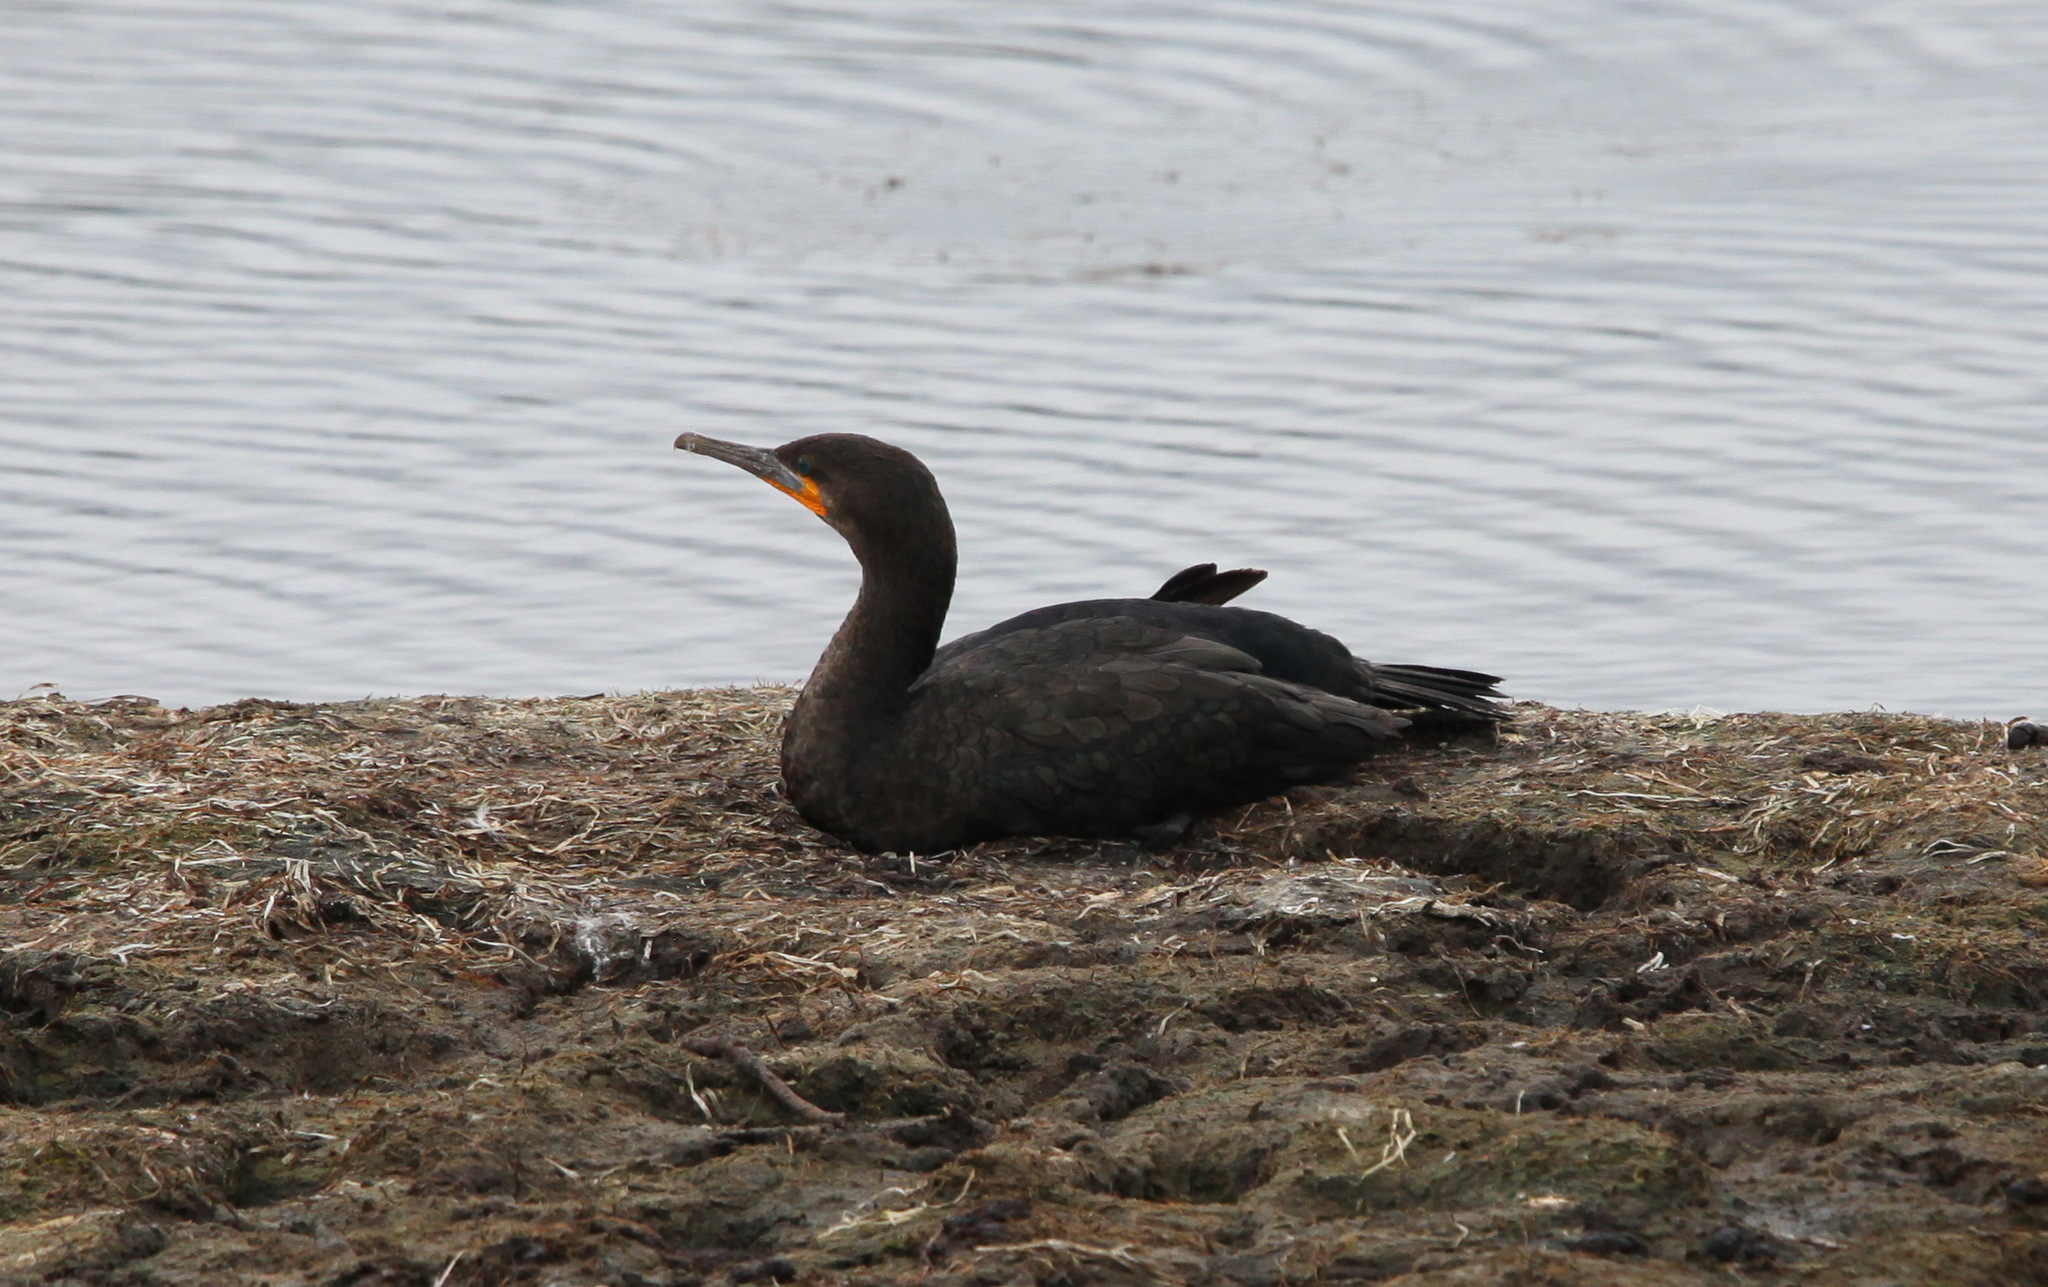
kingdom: Animalia
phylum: Chordata
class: Aves
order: Suliformes
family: Phalacrocoracidae
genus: Phalacrocorax
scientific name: Phalacrocorax capensis
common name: Cape cormorant
